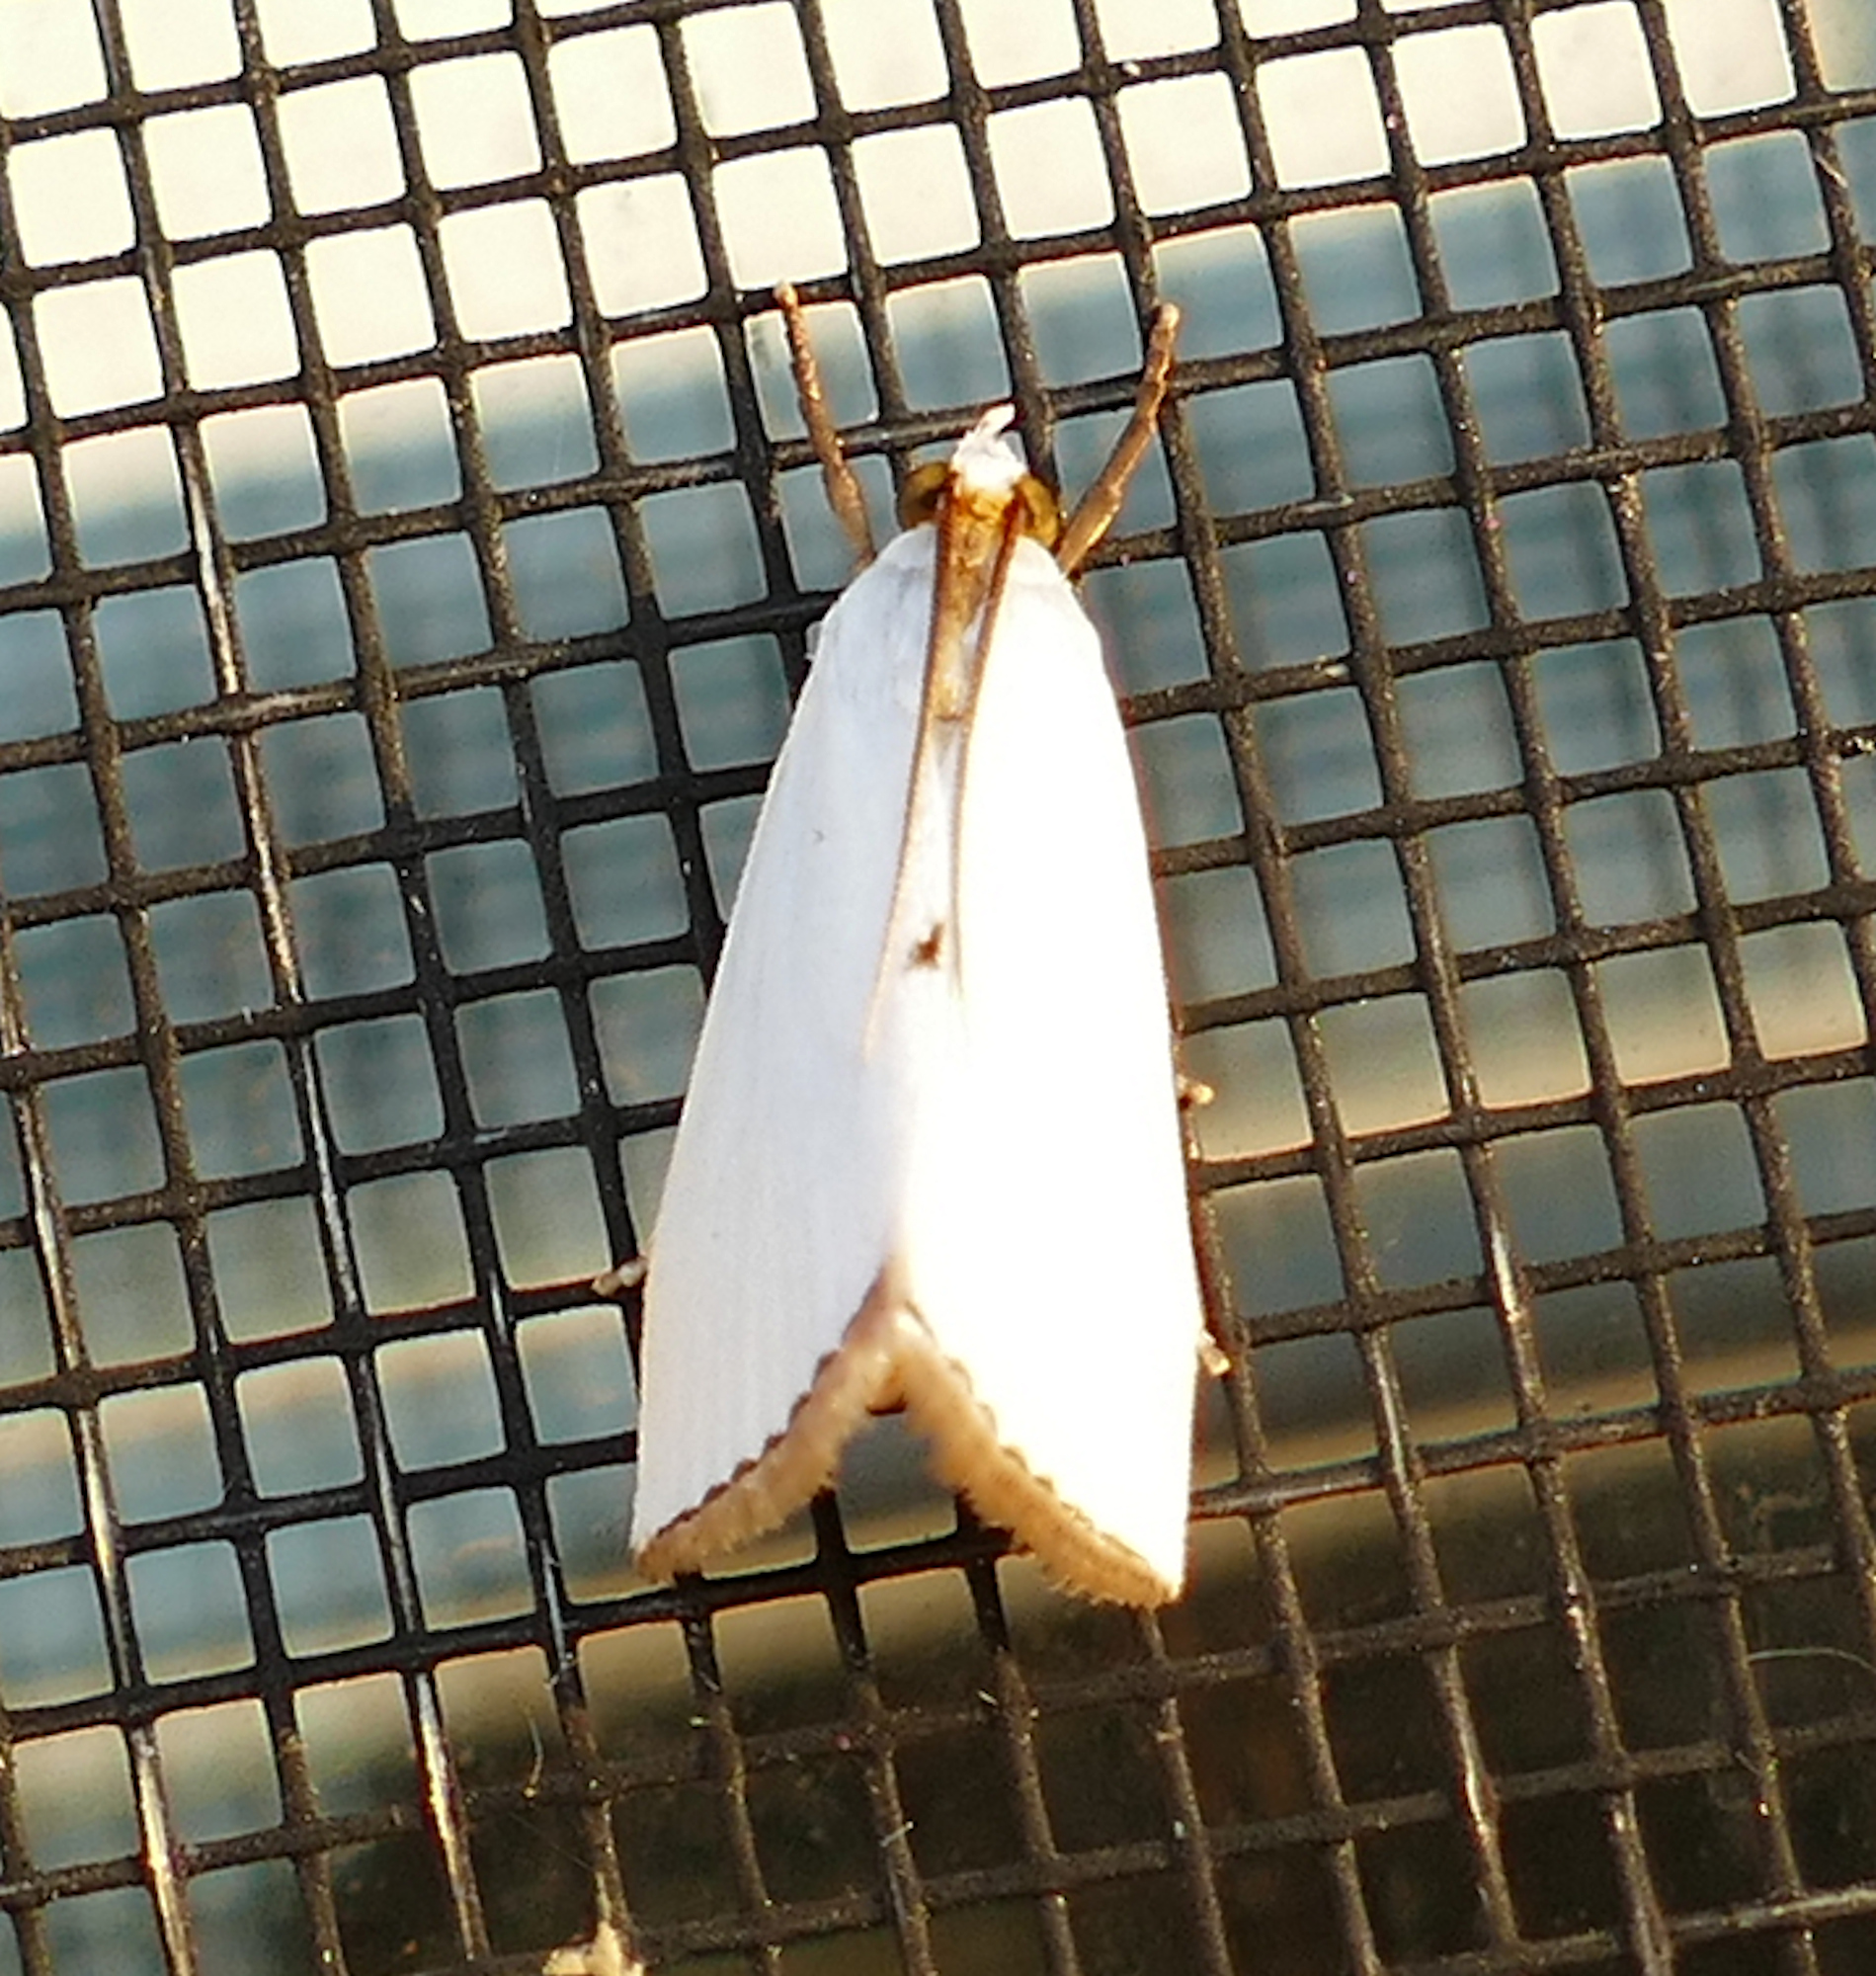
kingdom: Animalia
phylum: Arthropoda
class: Insecta
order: Lepidoptera
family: Crambidae
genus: Argyria
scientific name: Argyria nivalis
